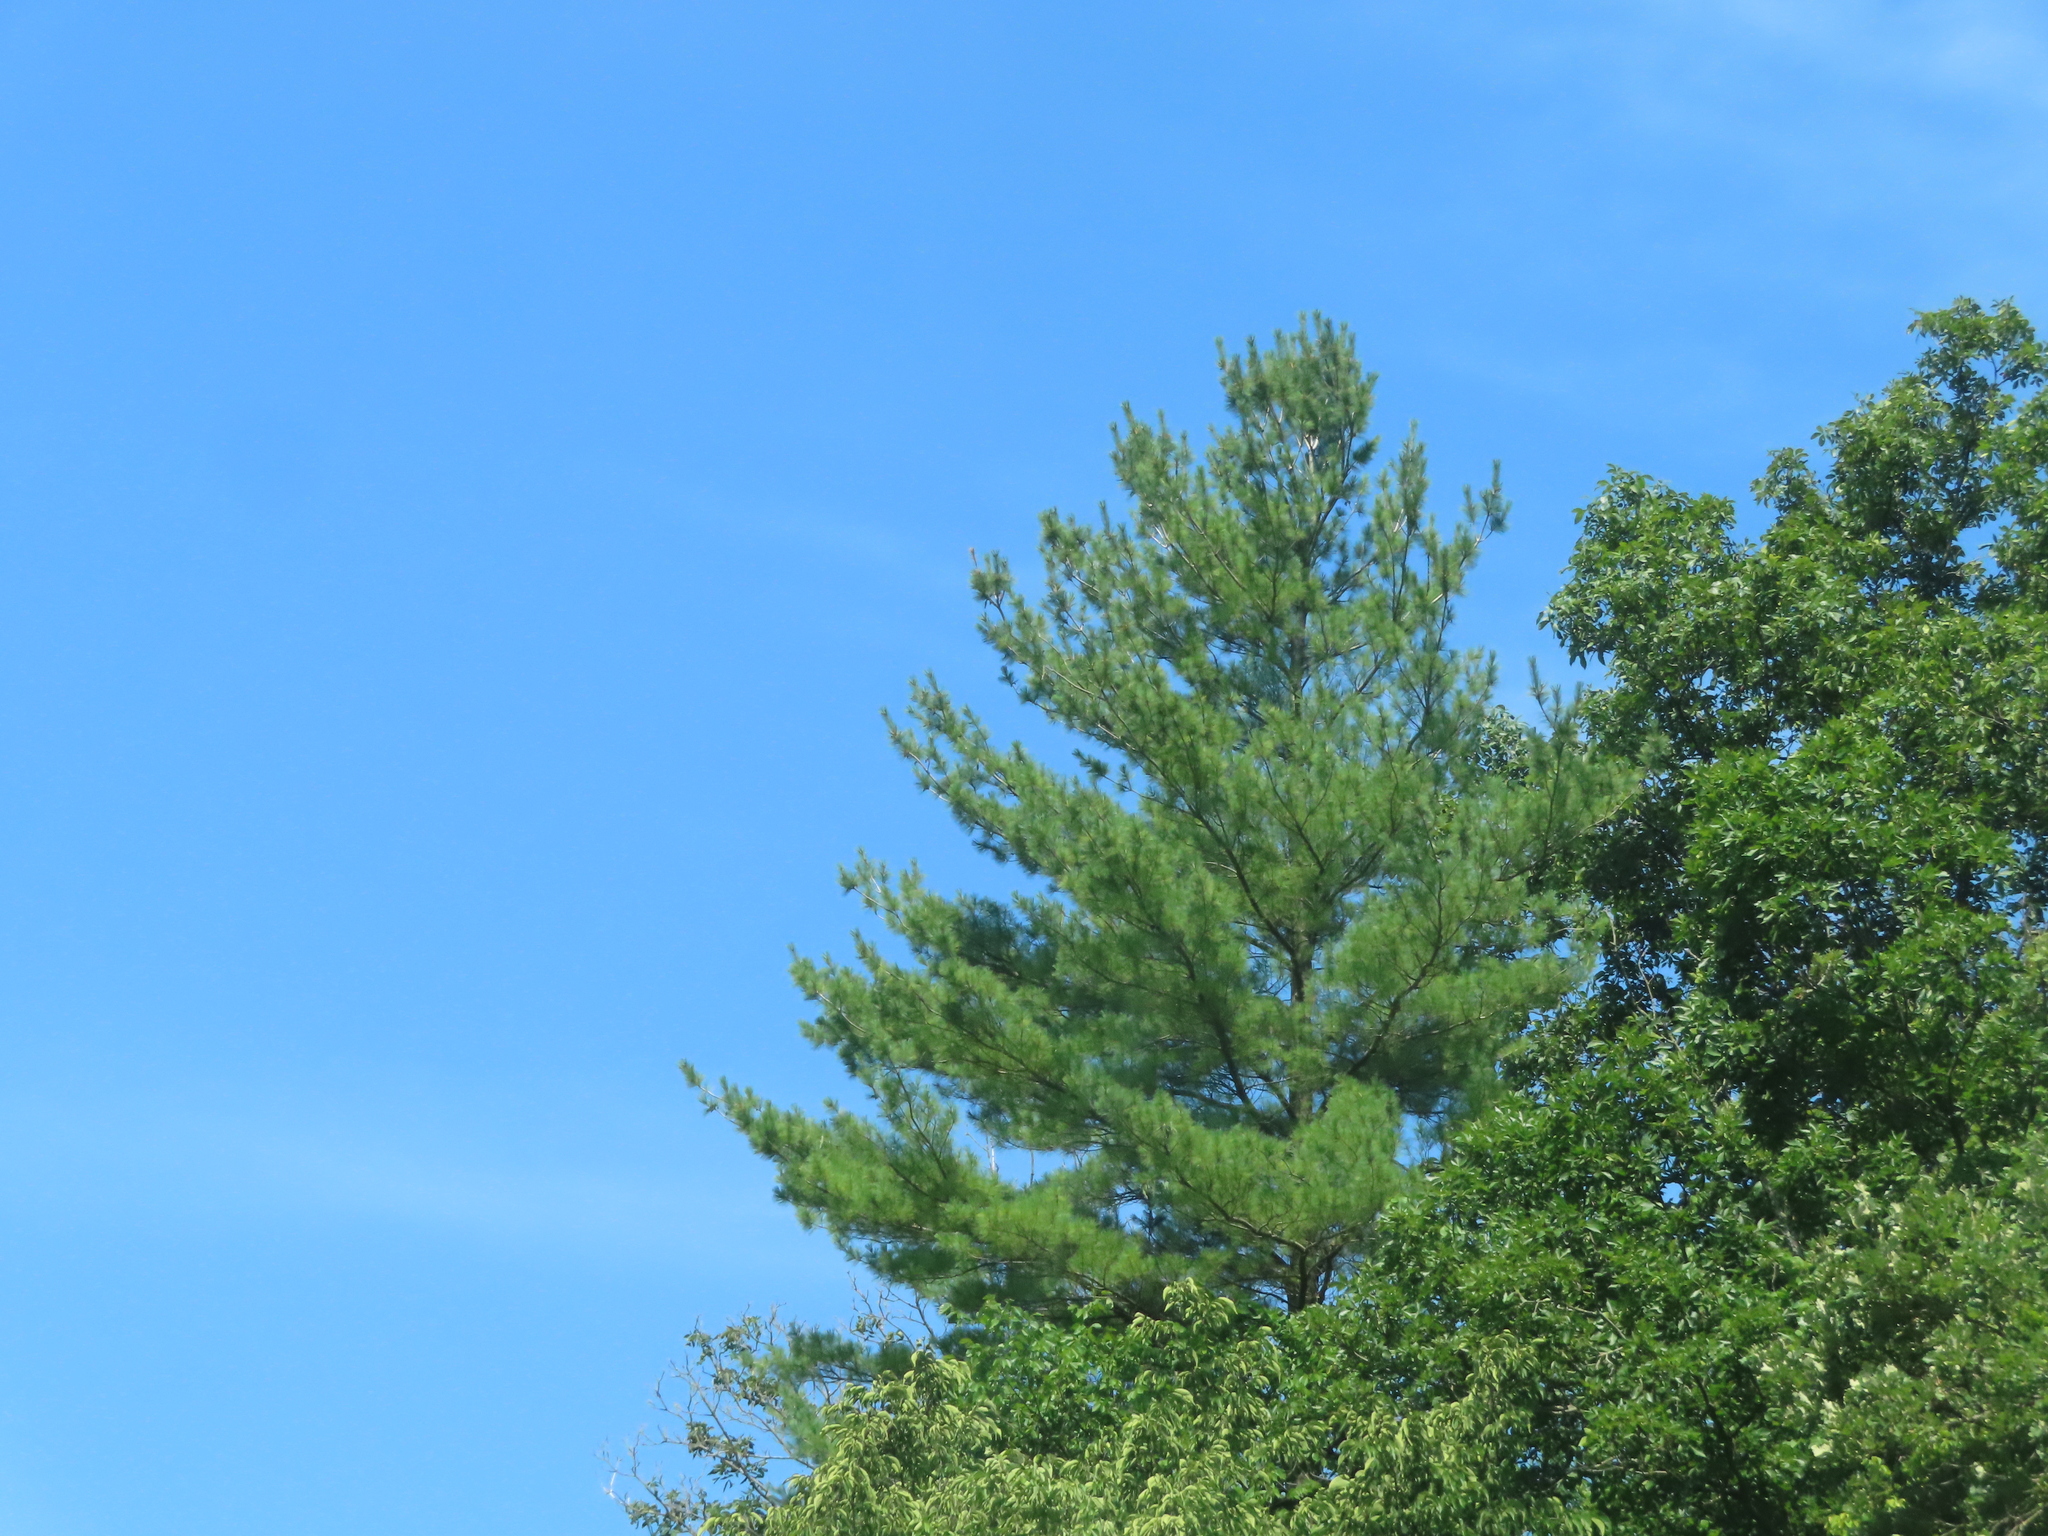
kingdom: Plantae
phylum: Tracheophyta
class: Pinopsida
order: Pinales
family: Pinaceae
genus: Pinus
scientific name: Pinus strobus
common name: Weymouth pine
